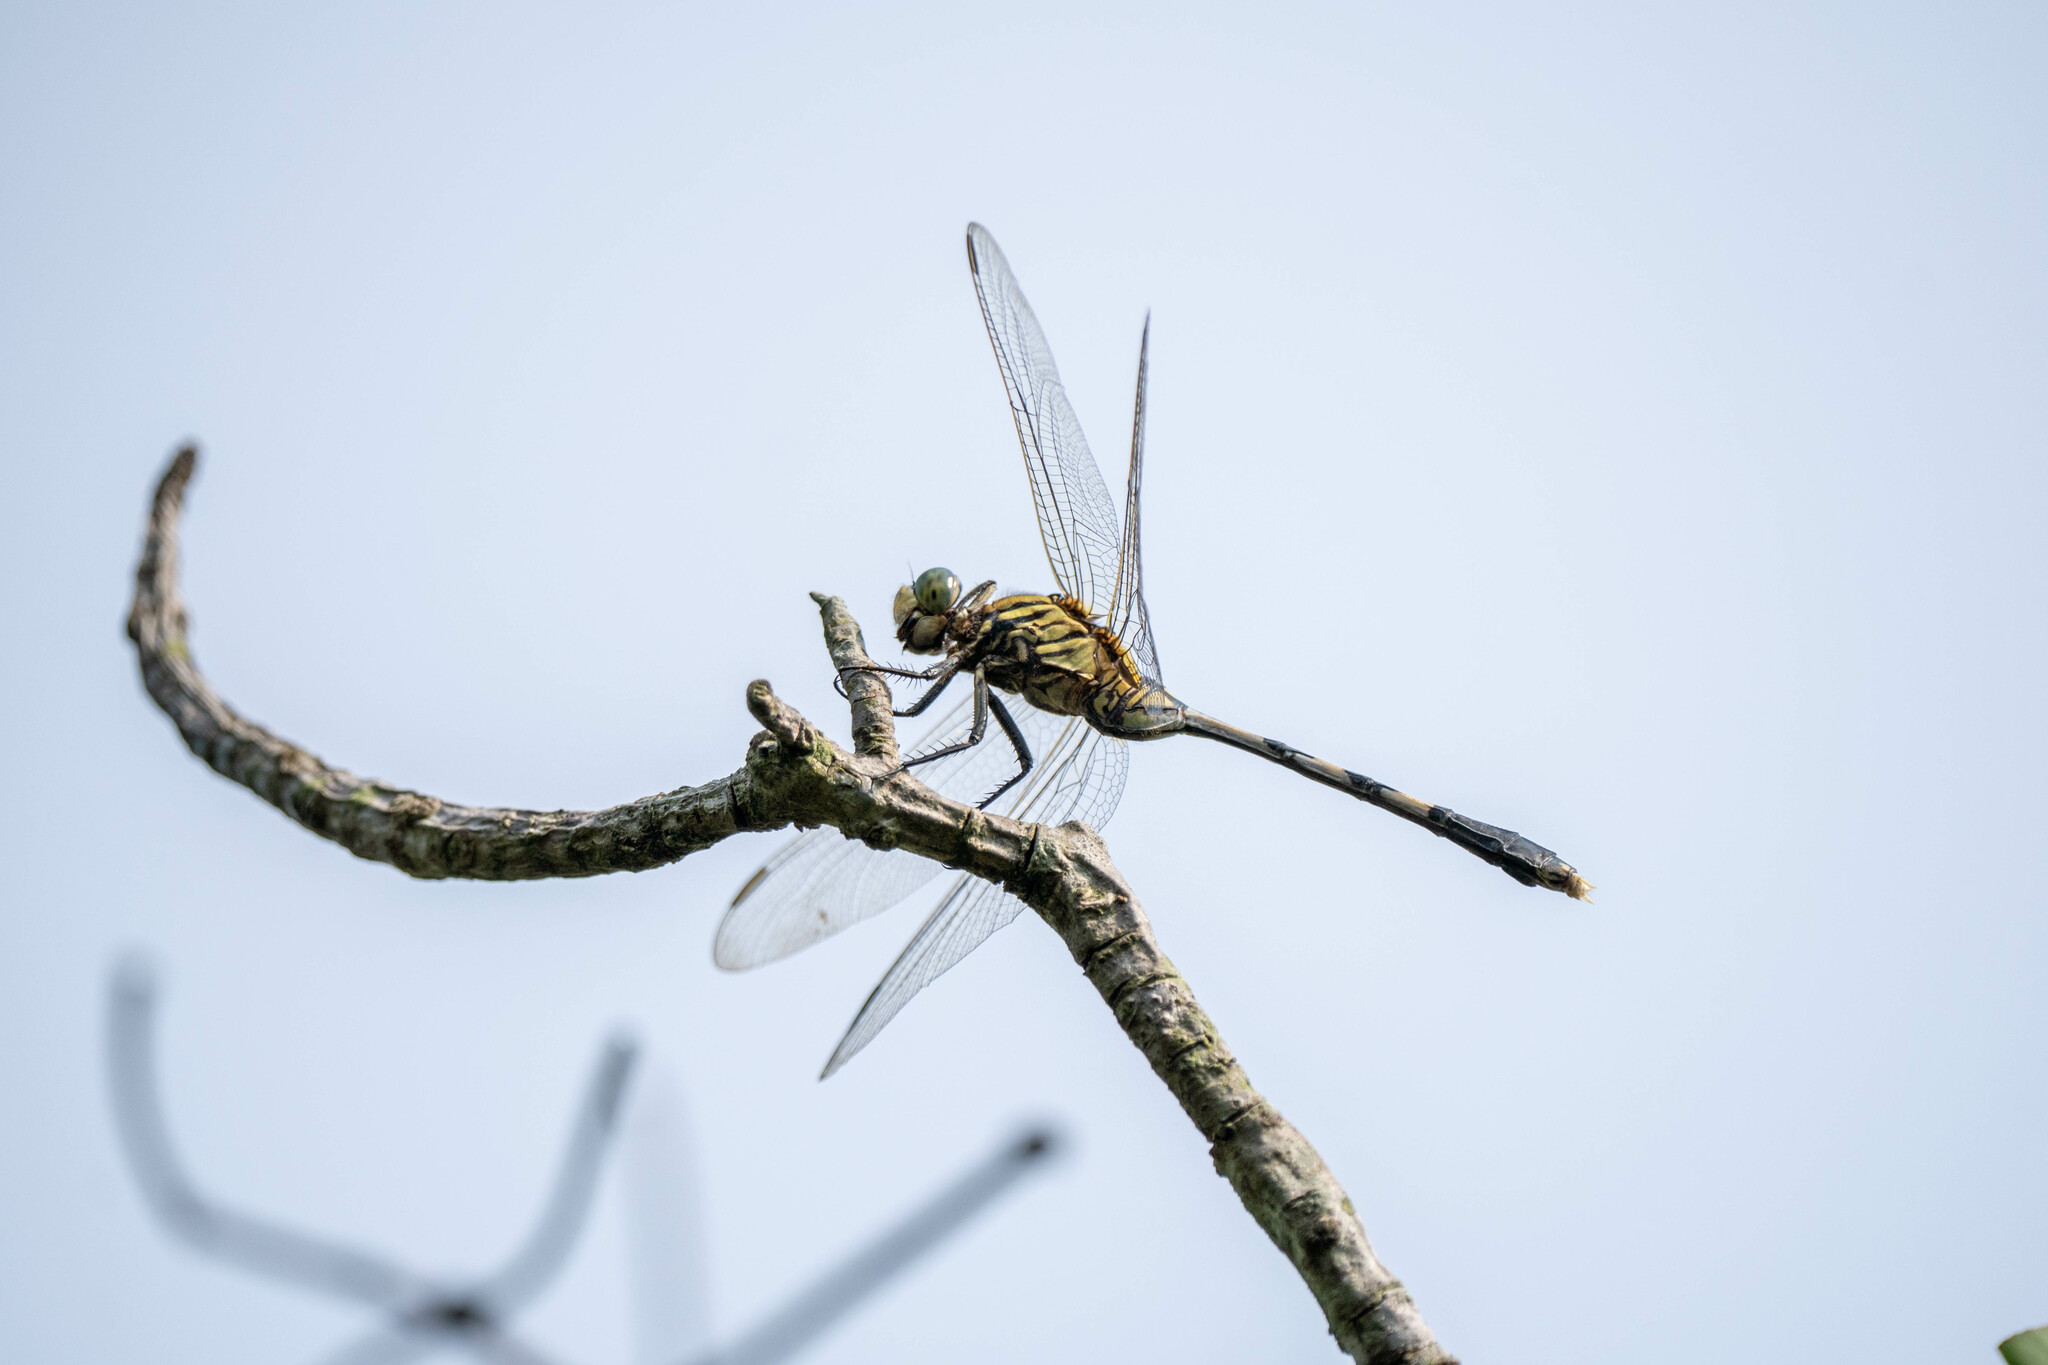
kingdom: Animalia
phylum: Arthropoda
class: Insecta
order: Odonata
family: Libellulidae
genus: Orthetrum
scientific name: Orthetrum sabina
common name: Slender skimmer
